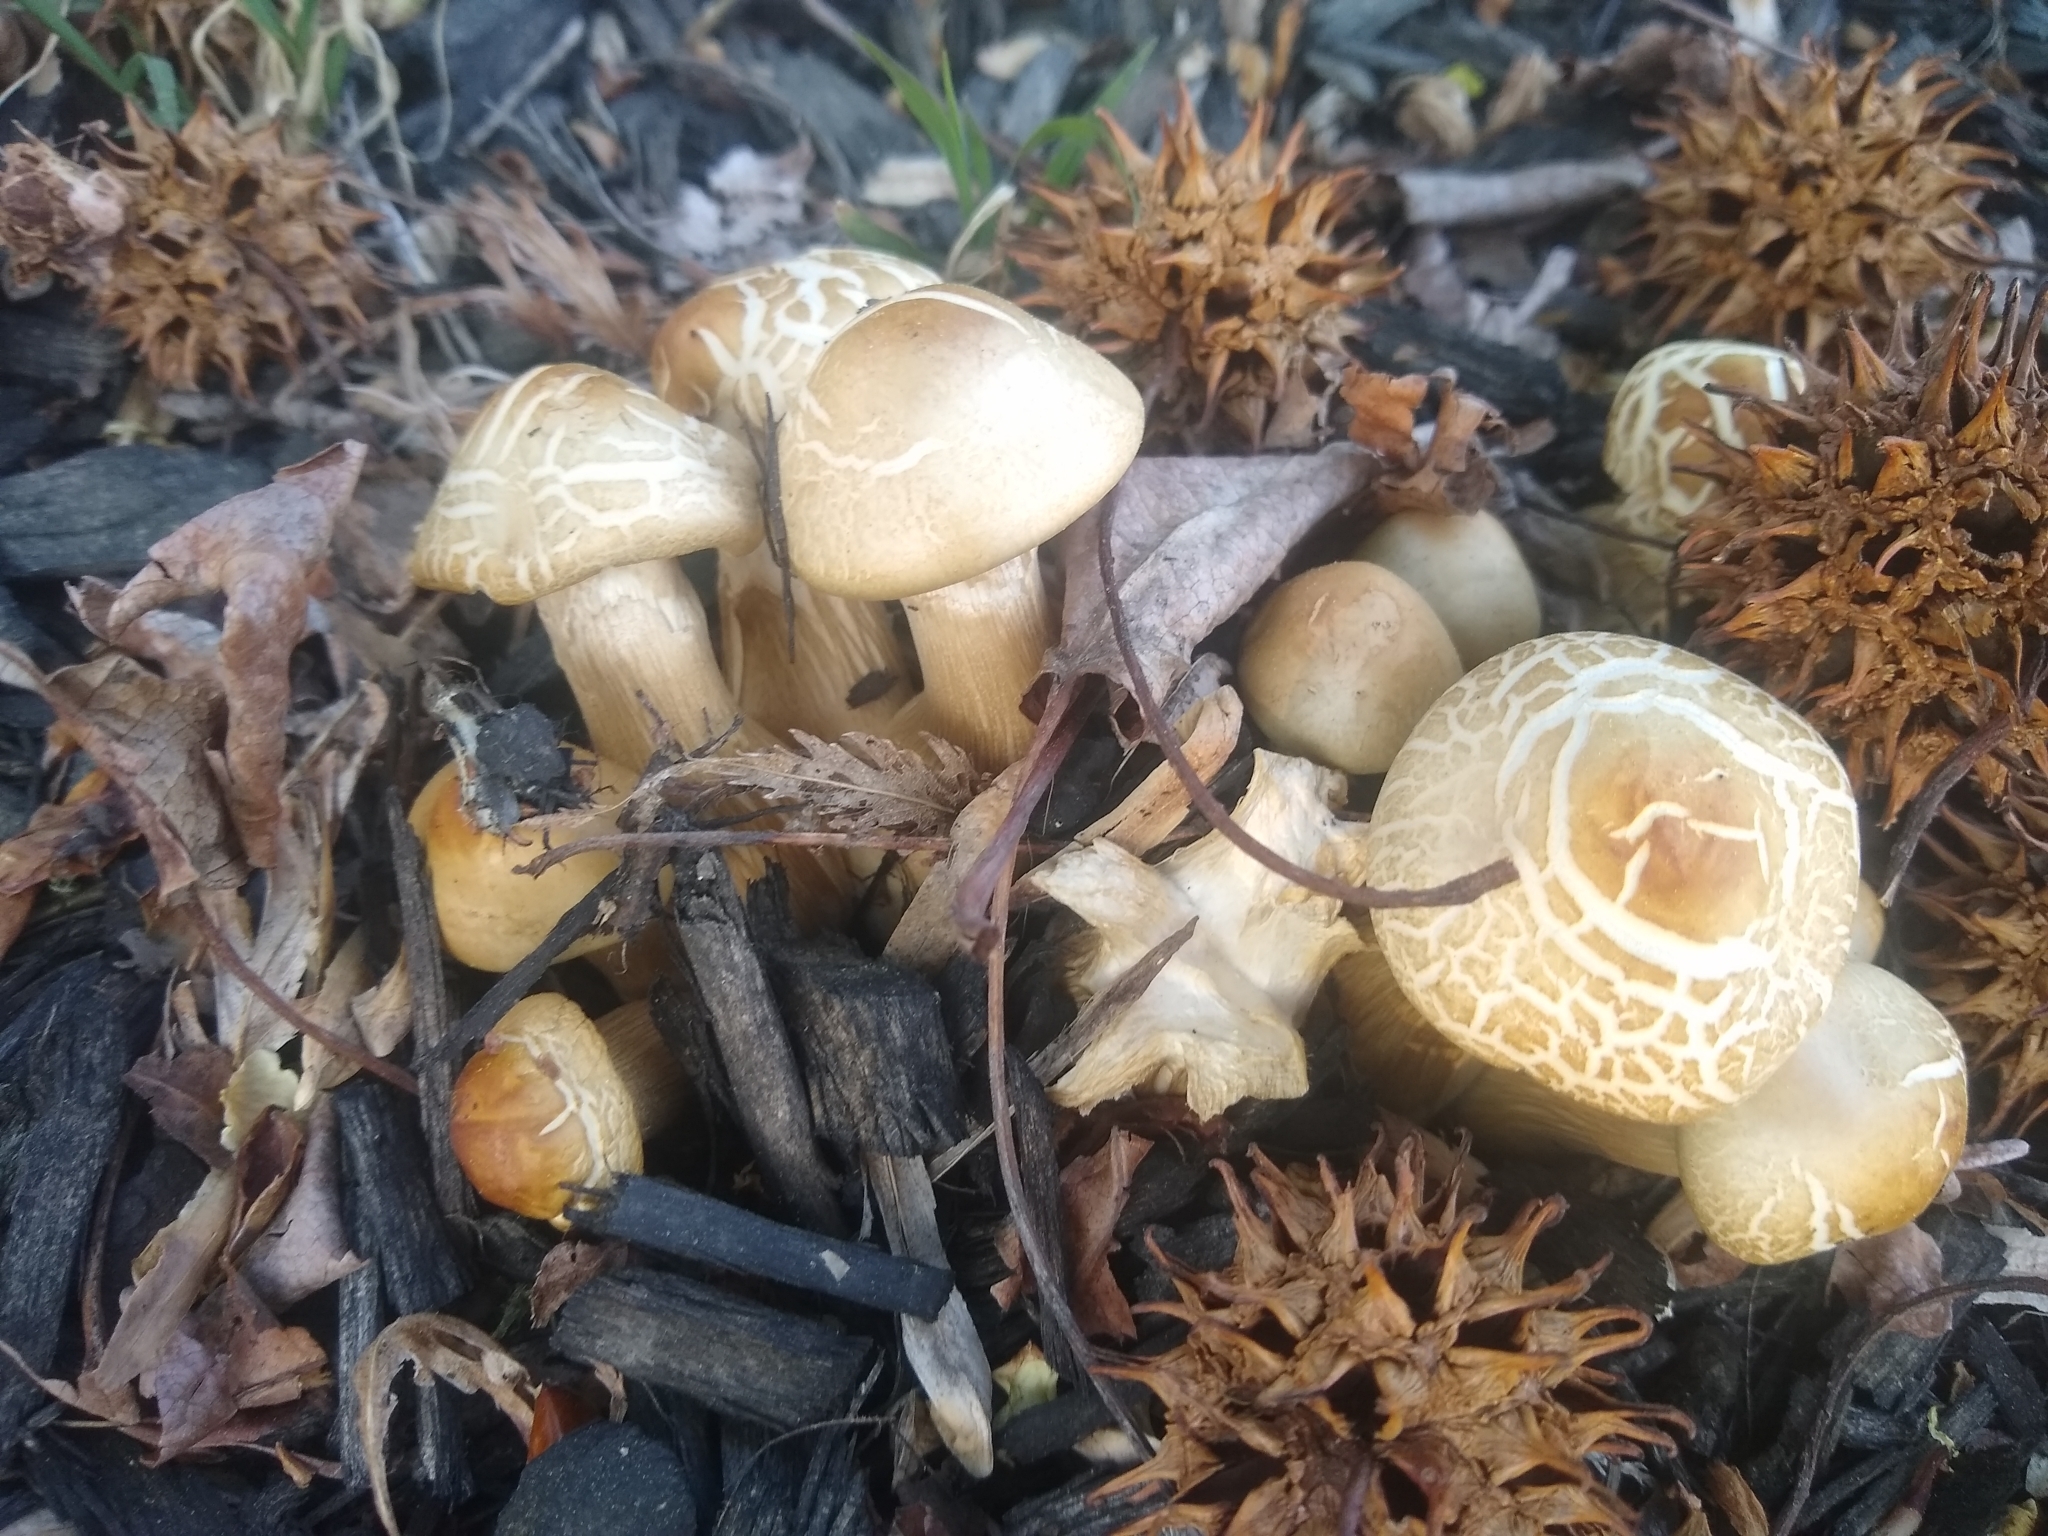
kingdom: Fungi
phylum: Basidiomycota
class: Agaricomycetes
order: Agaricales
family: Strophariaceae
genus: Agrocybe
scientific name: Agrocybe praecox
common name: Spring fieldcap
